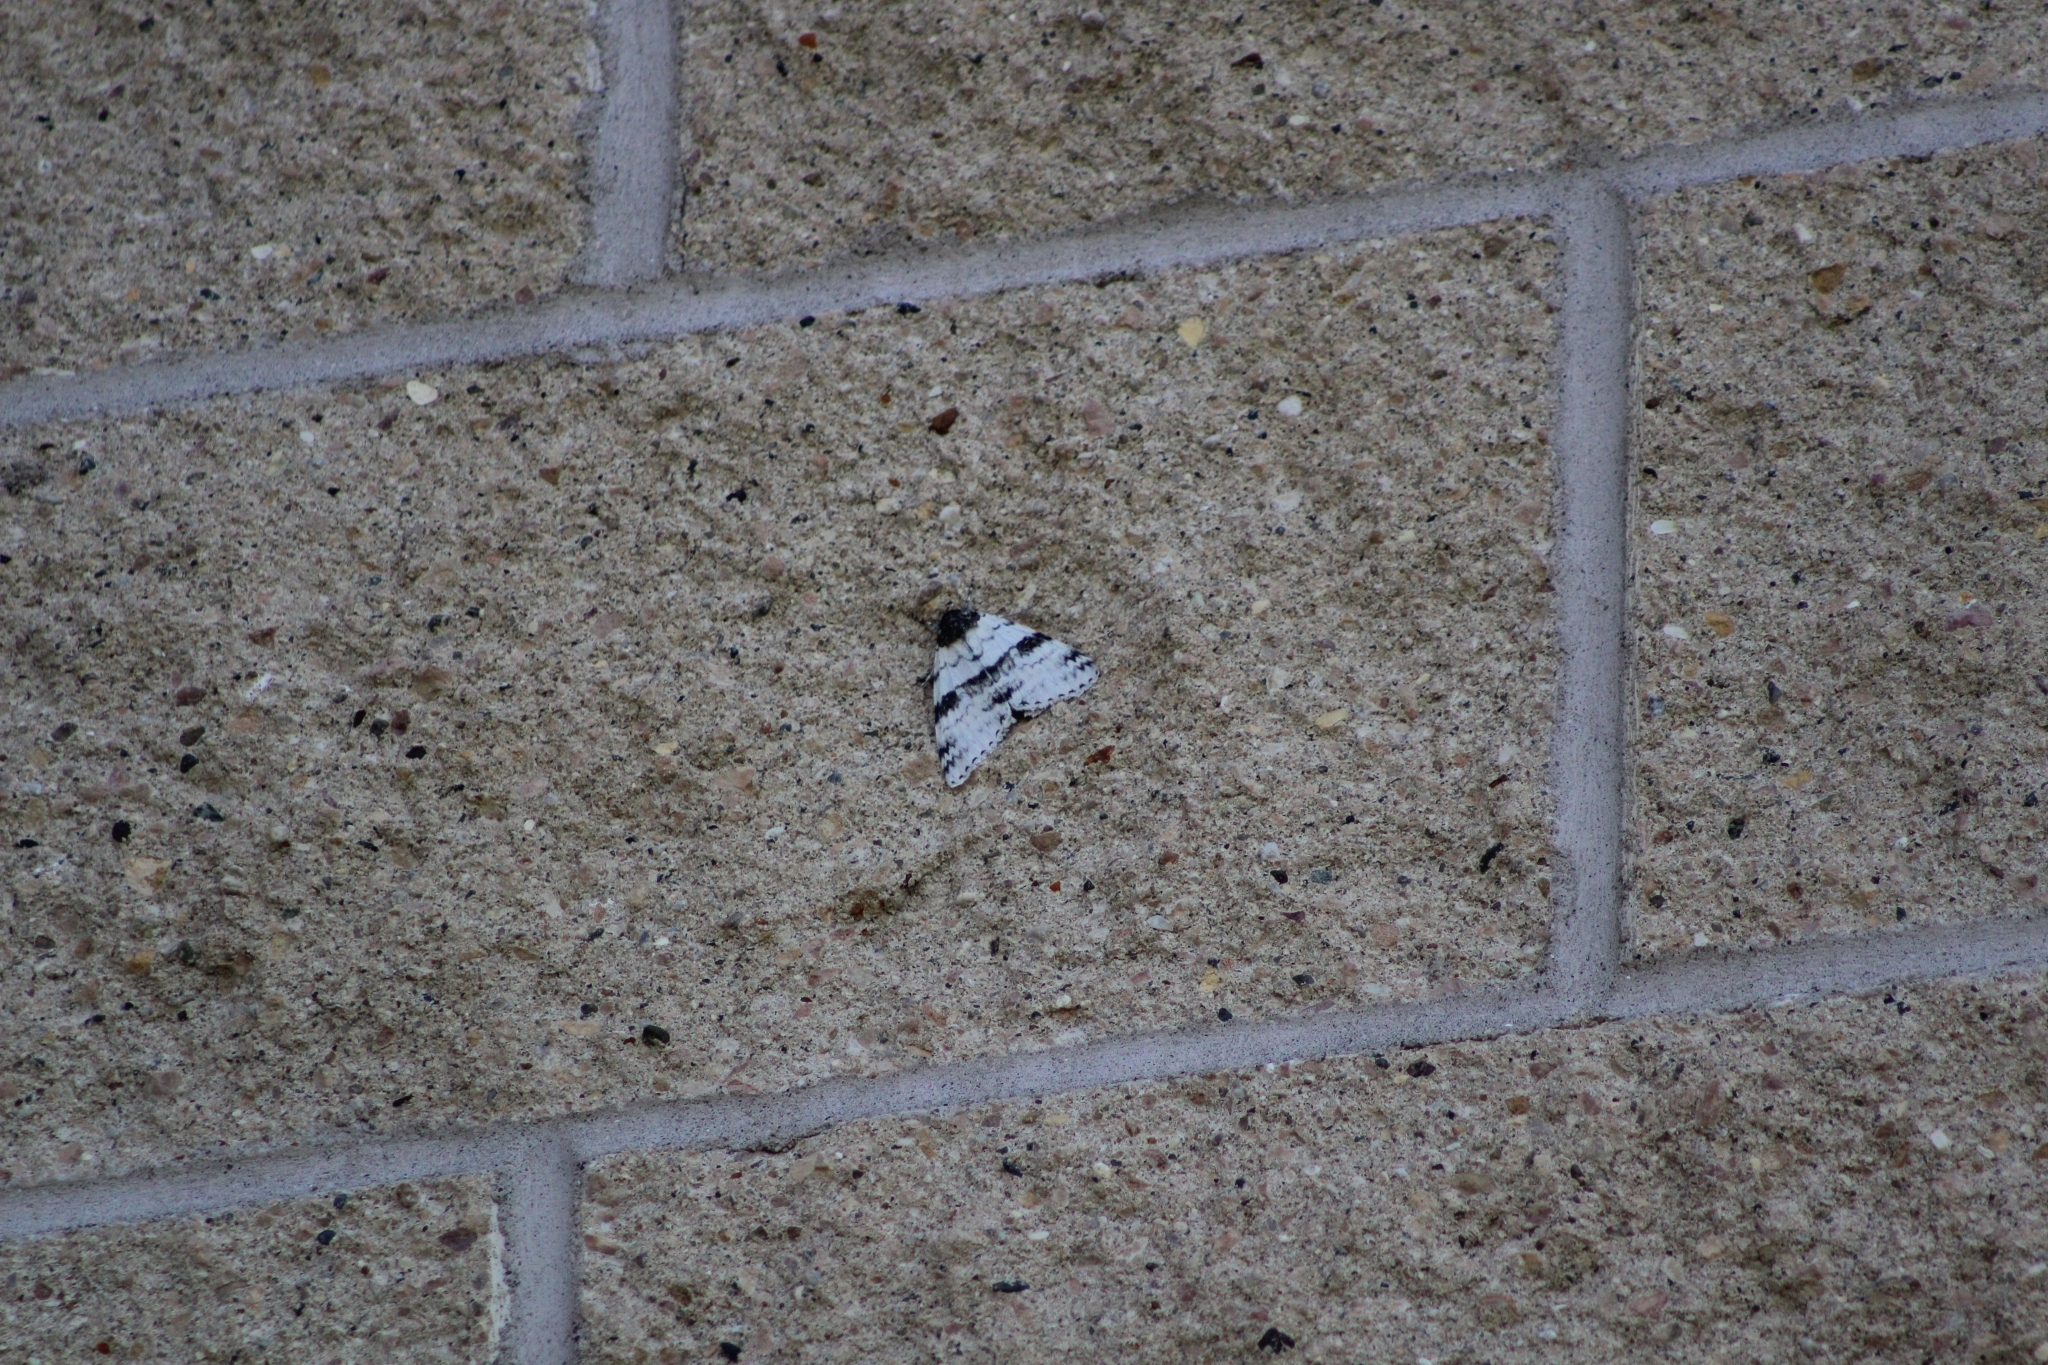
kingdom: Animalia
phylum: Arthropoda
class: Insecta
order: Lepidoptera
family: Erebidae
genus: Catocala
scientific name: Catocala relicta
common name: White underwing
